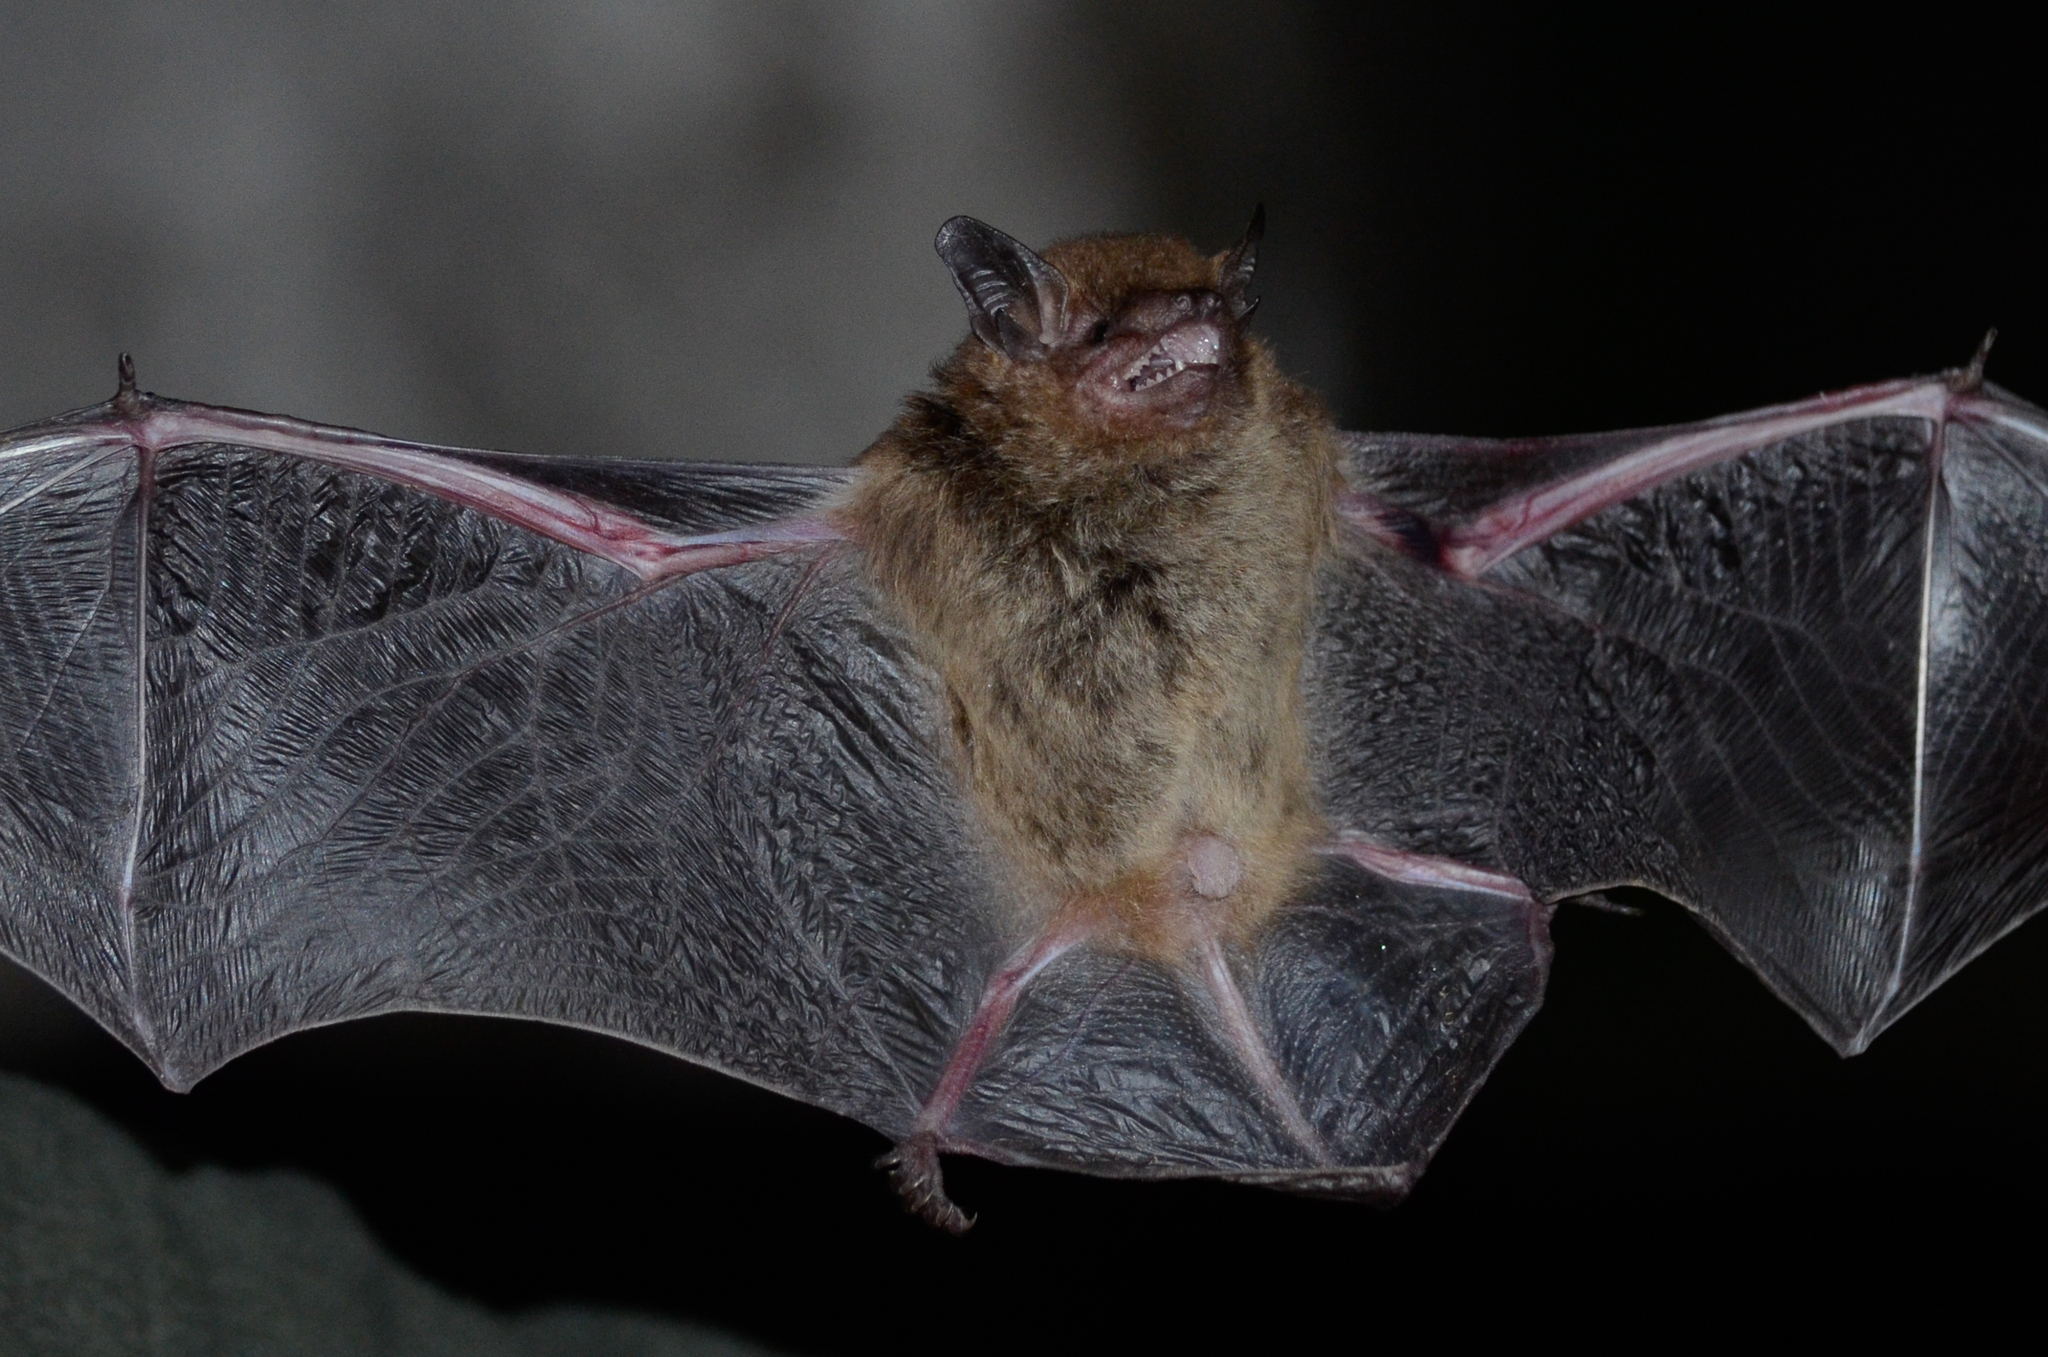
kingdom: Animalia
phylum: Chordata
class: Mammalia
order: Chiroptera
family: Vespertilionidae
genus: Eptesicus
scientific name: Eptesicus furinalis
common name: Argentinian brown bat
